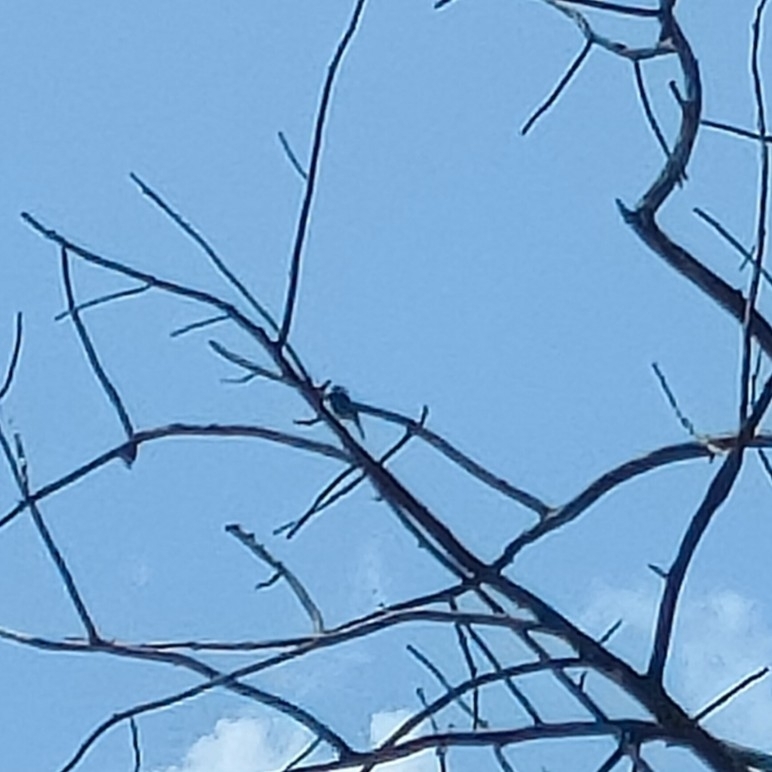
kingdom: Animalia
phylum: Chordata
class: Aves
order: Passeriformes
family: Muscicapidae
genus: Phoenicurus
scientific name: Phoenicurus ochruros
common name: Black redstart
